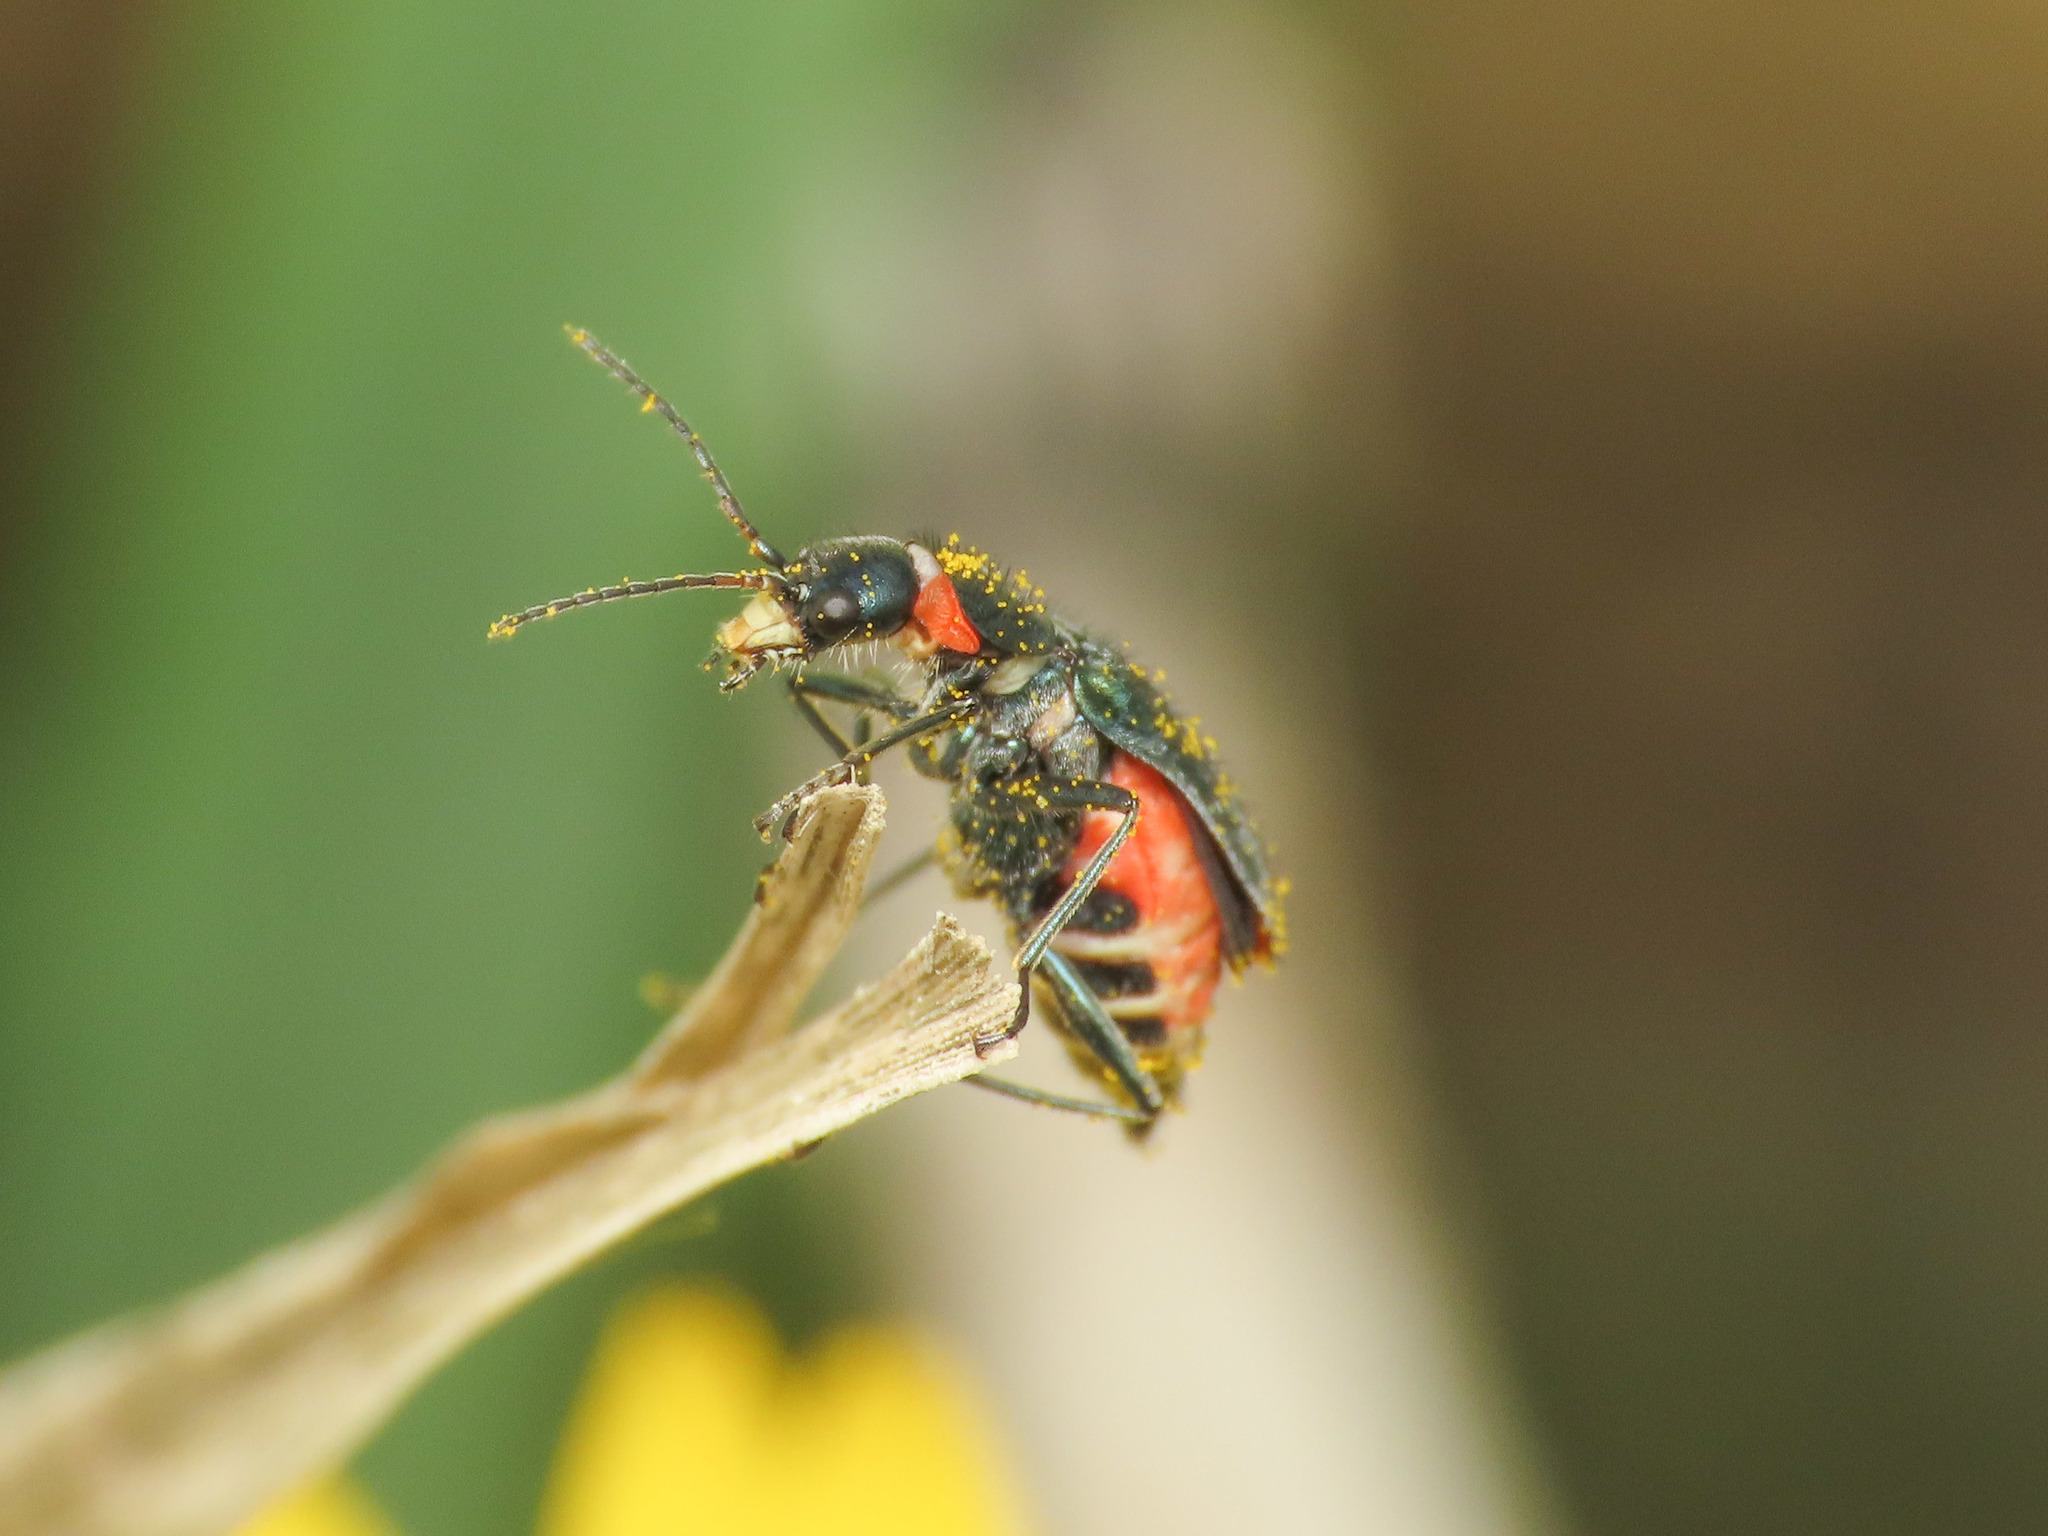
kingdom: Animalia
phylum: Arthropoda
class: Insecta
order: Coleoptera
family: Malachiidae
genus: Clanoptilus
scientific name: Clanoptilus spinipennis
